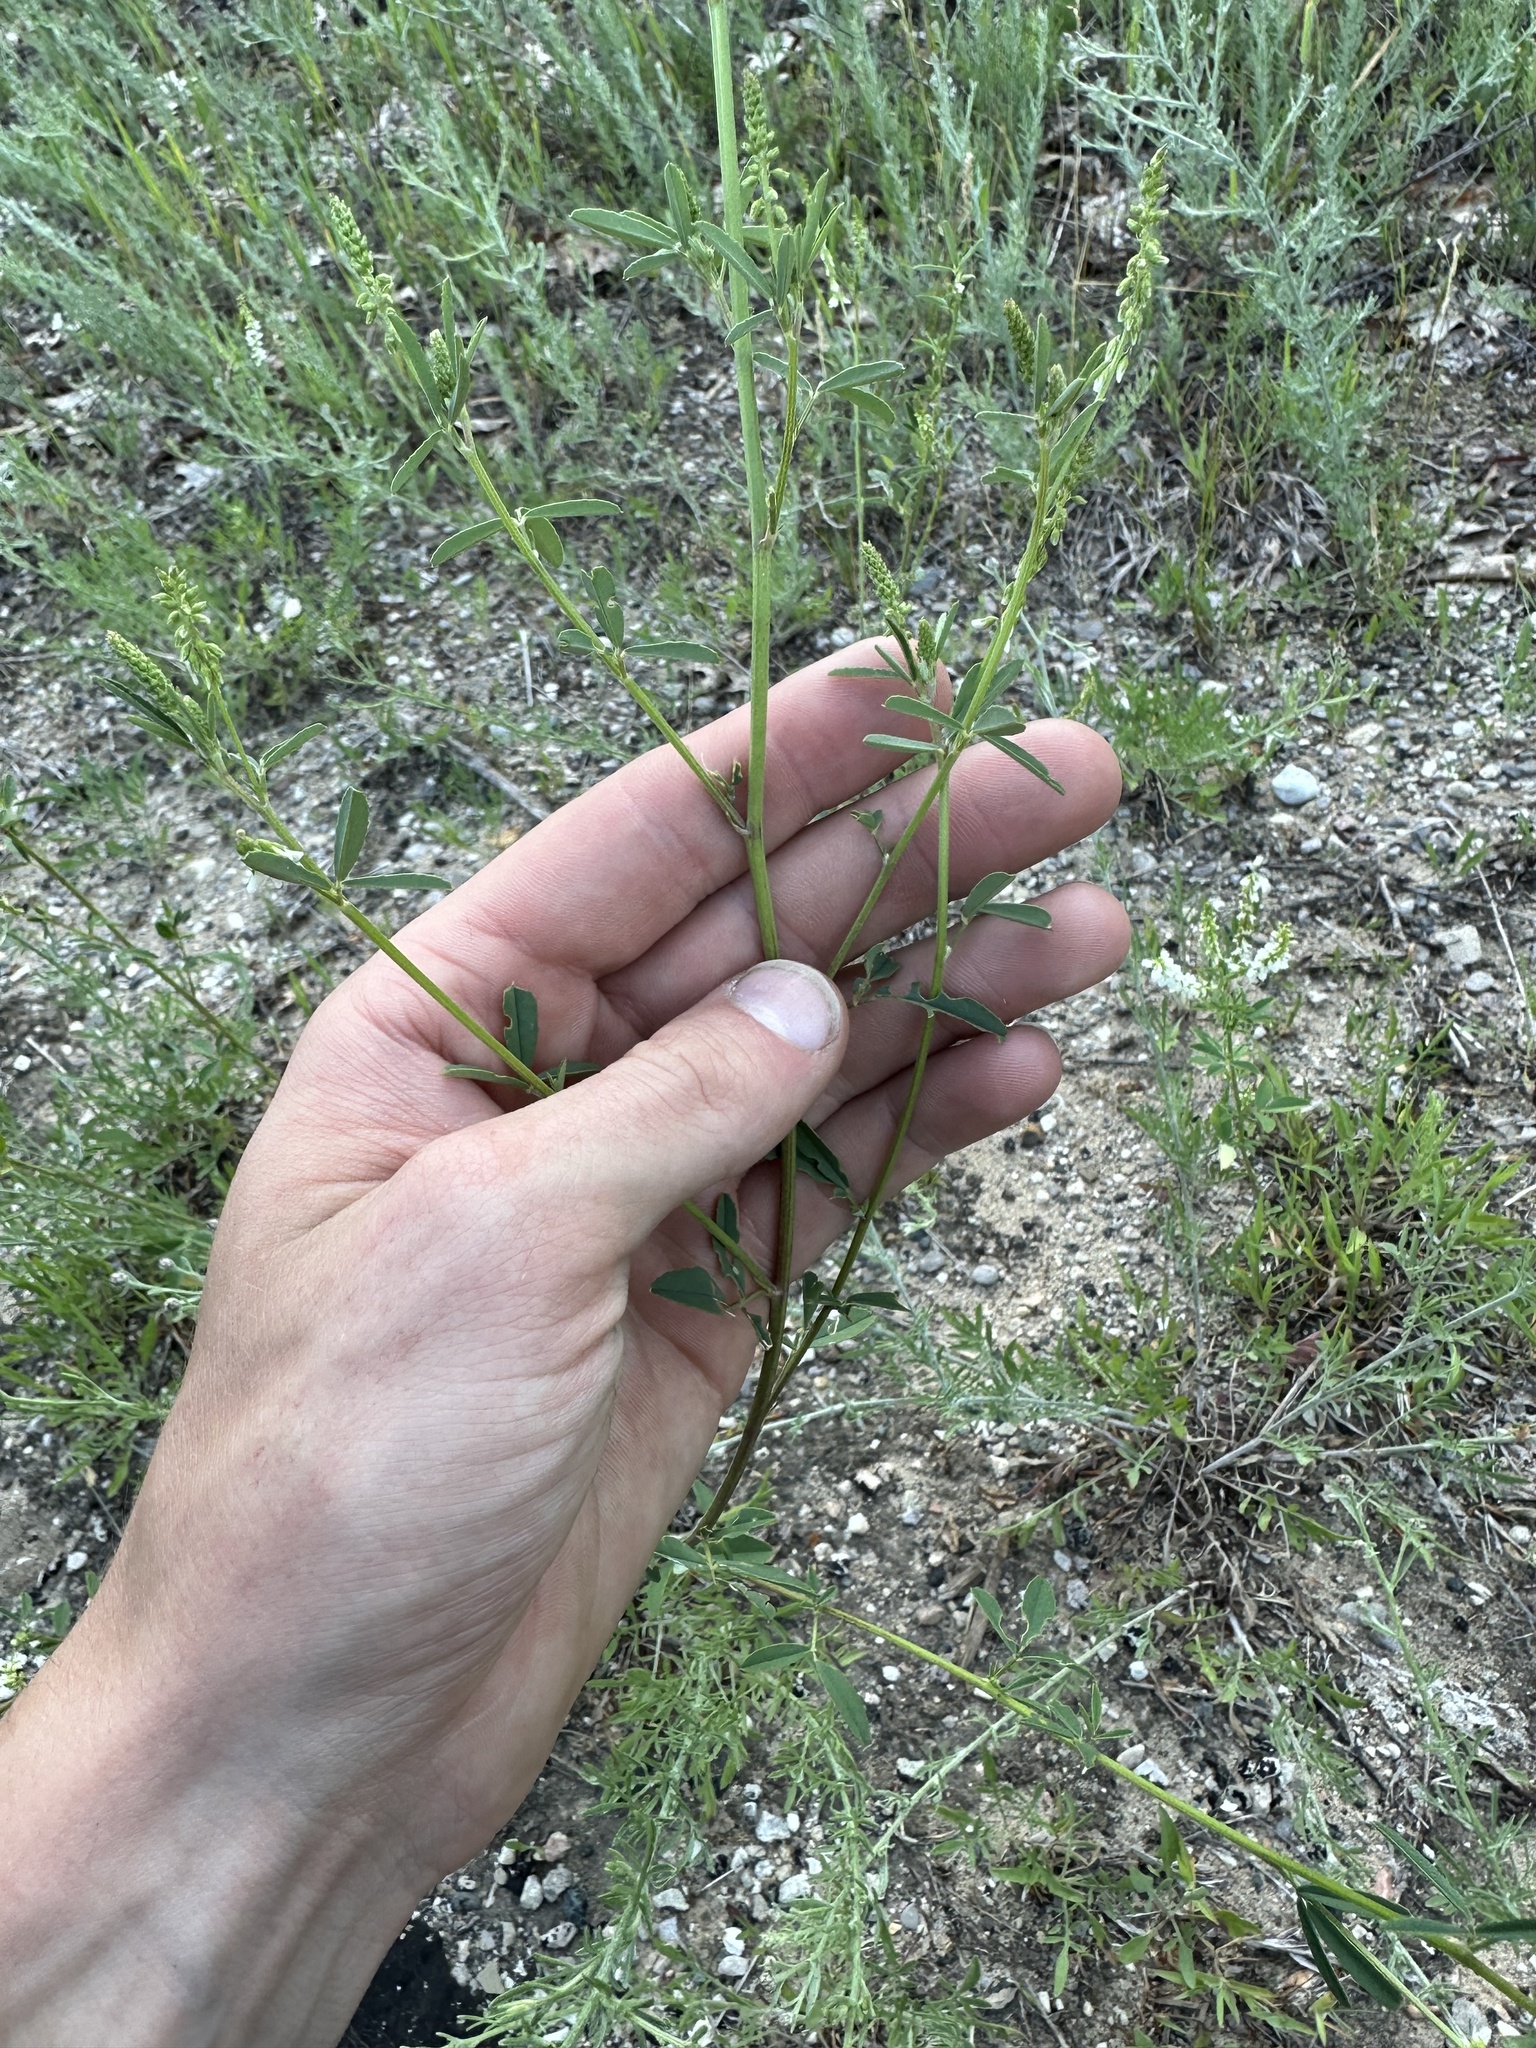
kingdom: Plantae
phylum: Tracheophyta
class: Magnoliopsida
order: Fabales
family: Fabaceae
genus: Melilotus
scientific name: Melilotus albus
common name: White melilot
